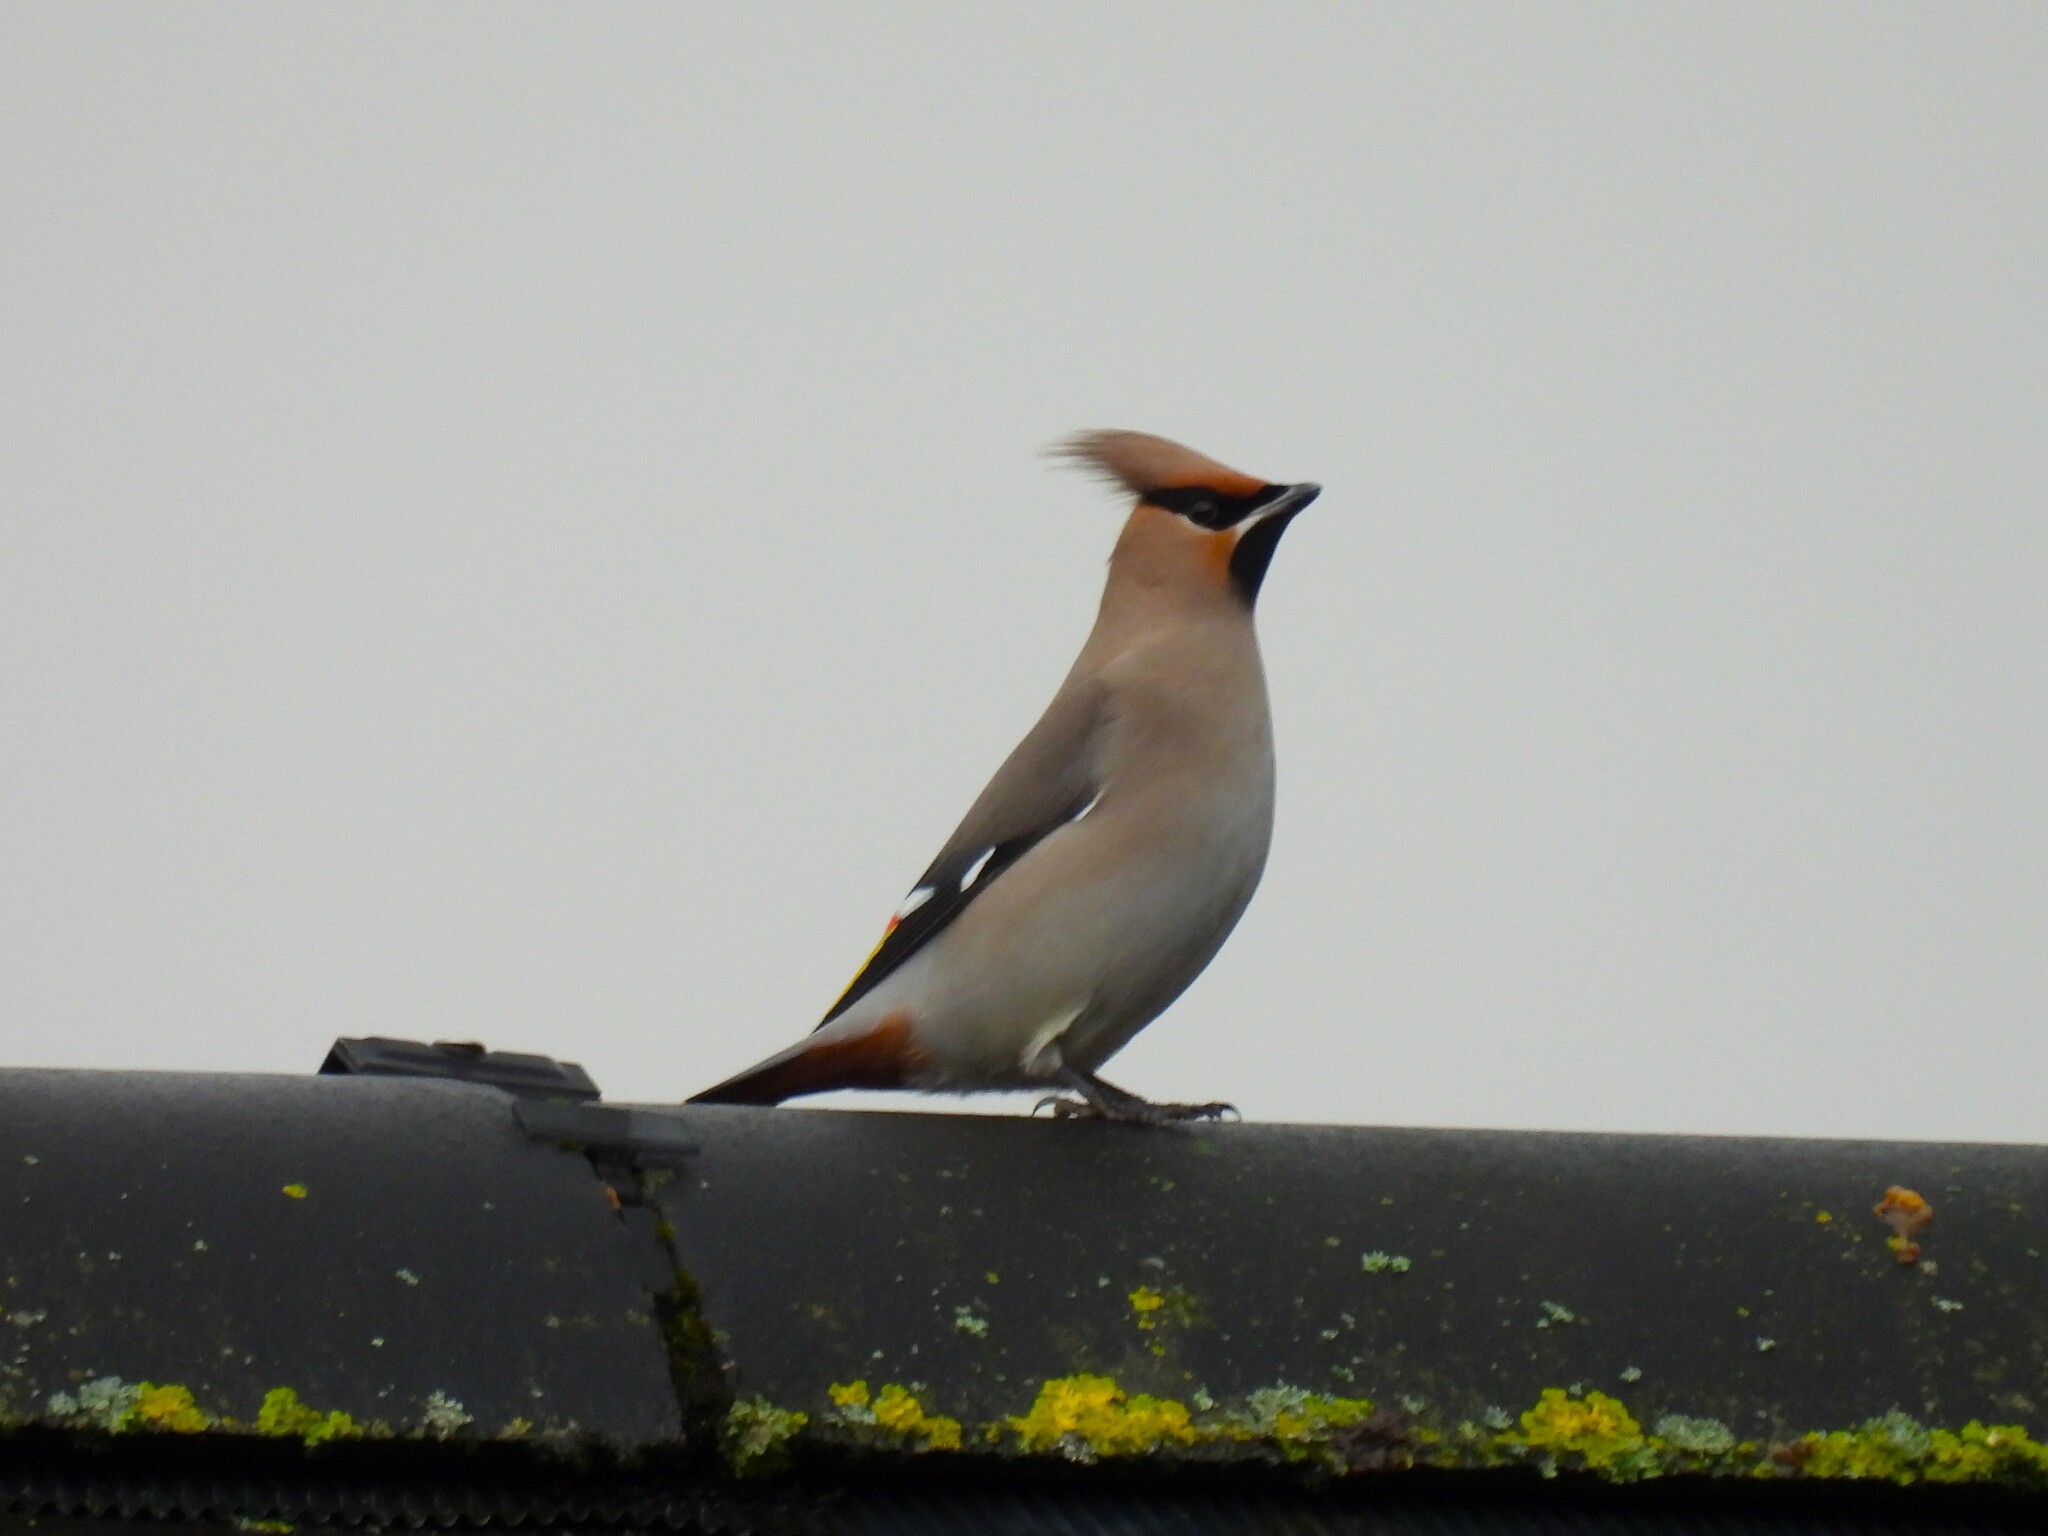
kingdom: Animalia
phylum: Chordata
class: Aves
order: Passeriformes
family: Bombycillidae
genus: Bombycilla
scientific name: Bombycilla garrulus
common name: Bohemian waxwing
